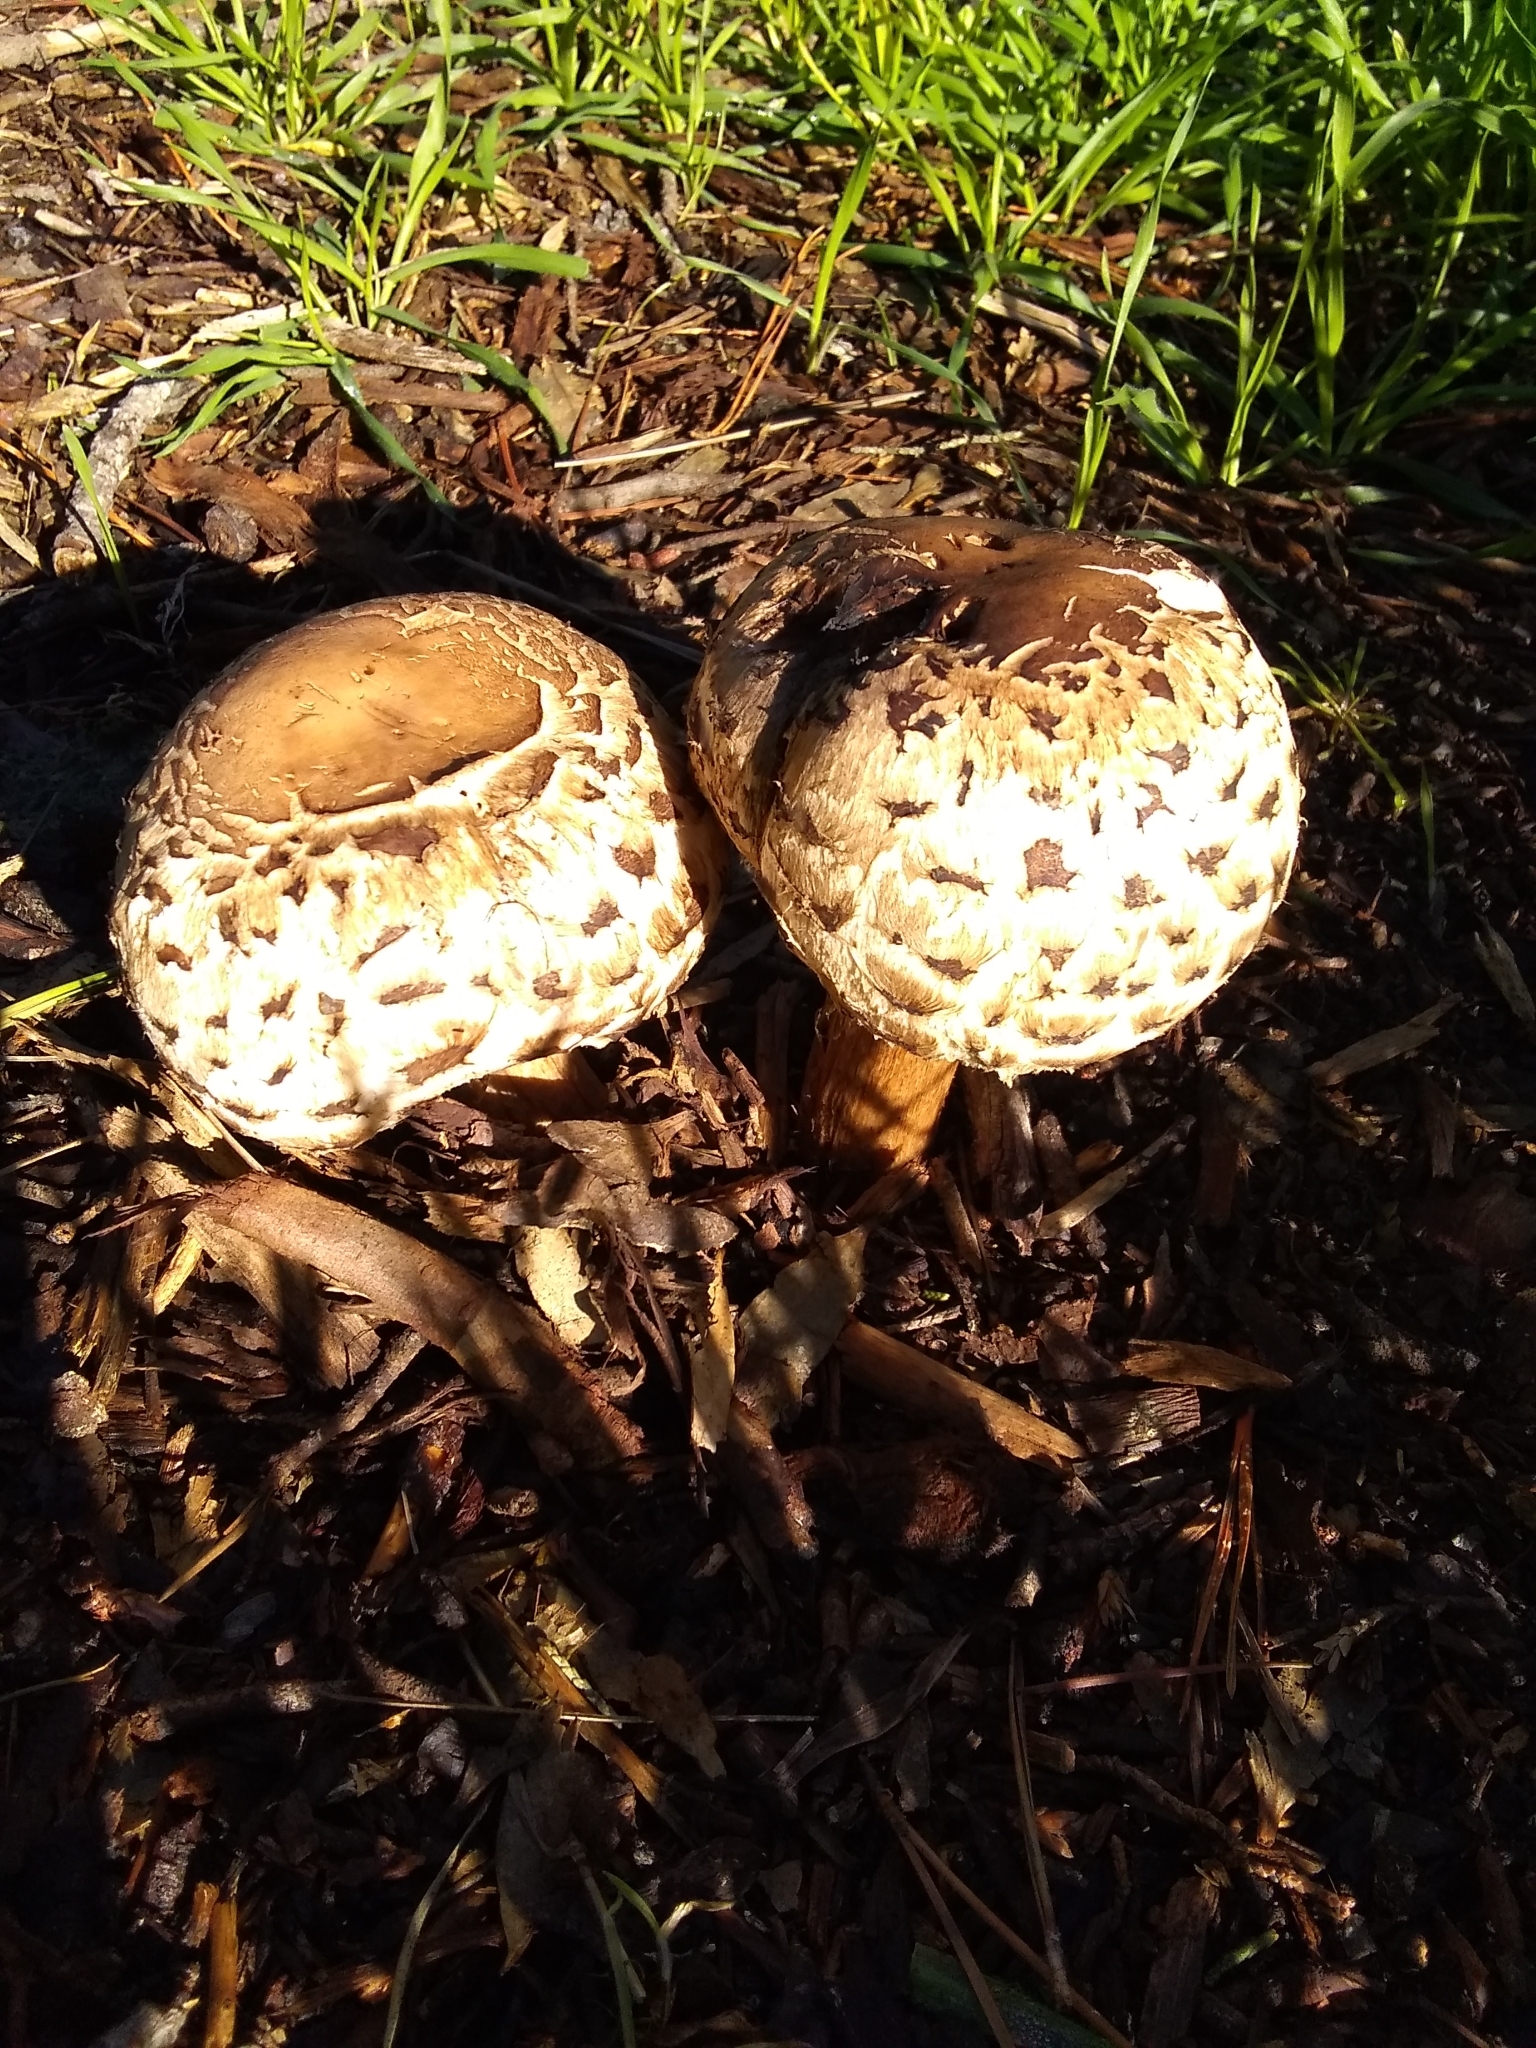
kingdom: Fungi
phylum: Basidiomycota
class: Agaricomycetes
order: Agaricales
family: Agaricaceae
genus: Chlorophyllum
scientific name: Chlorophyllum brunneum
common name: Brown parasol
